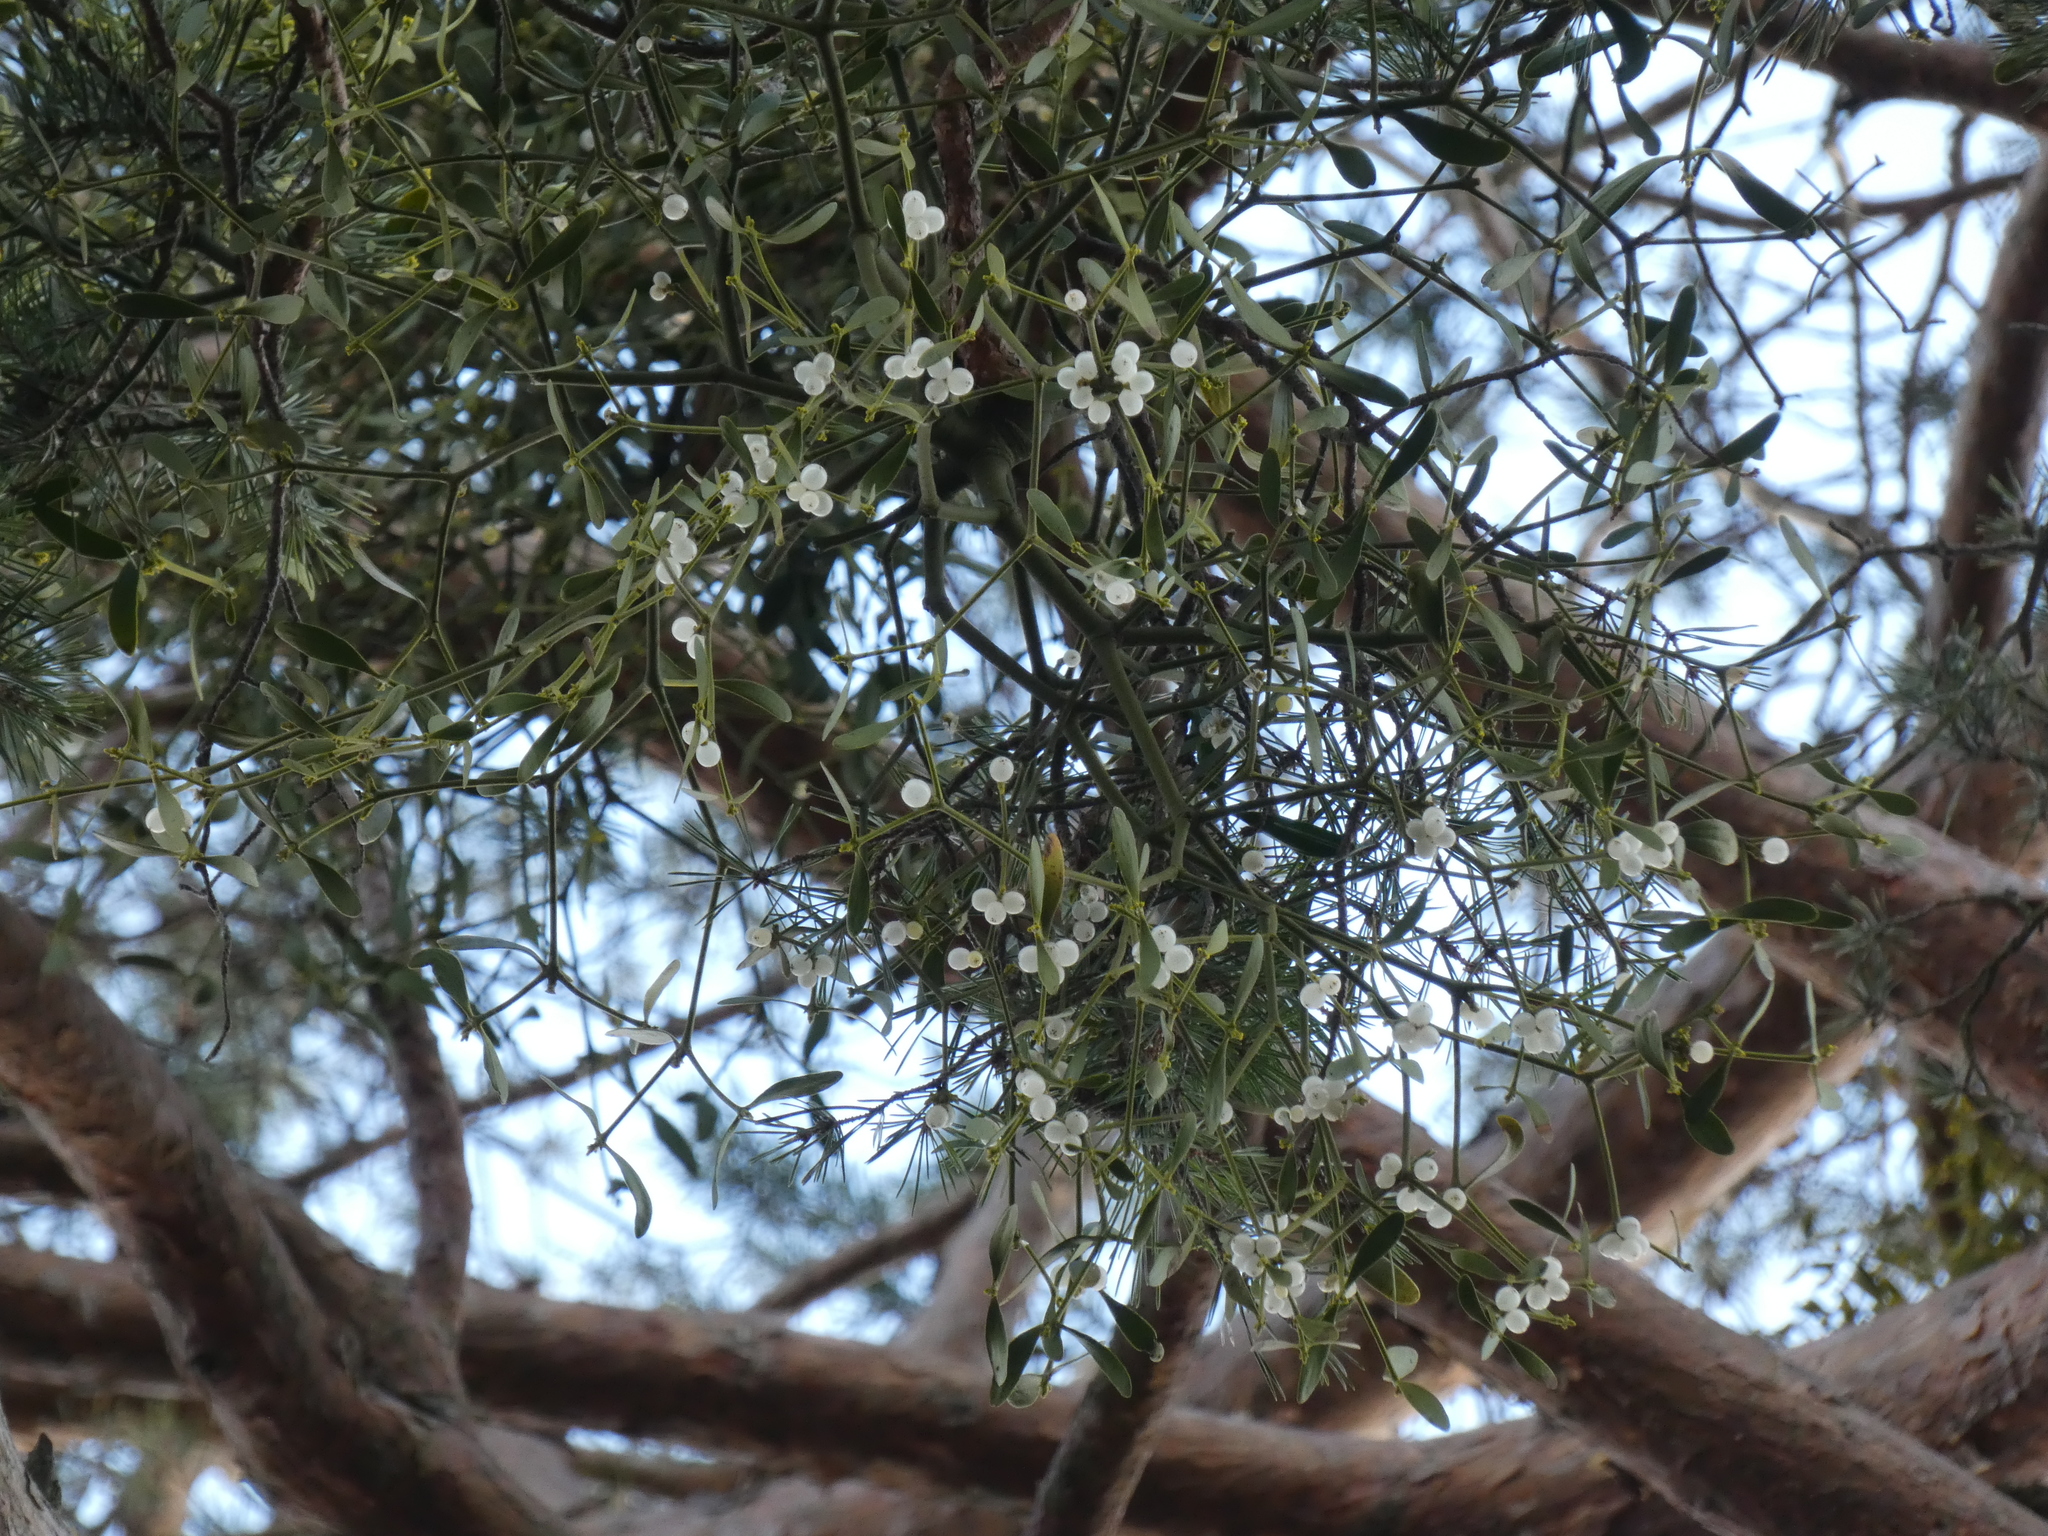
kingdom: Plantae
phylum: Tracheophyta
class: Magnoliopsida
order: Santalales
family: Viscaceae
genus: Viscum
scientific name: Viscum laxum
